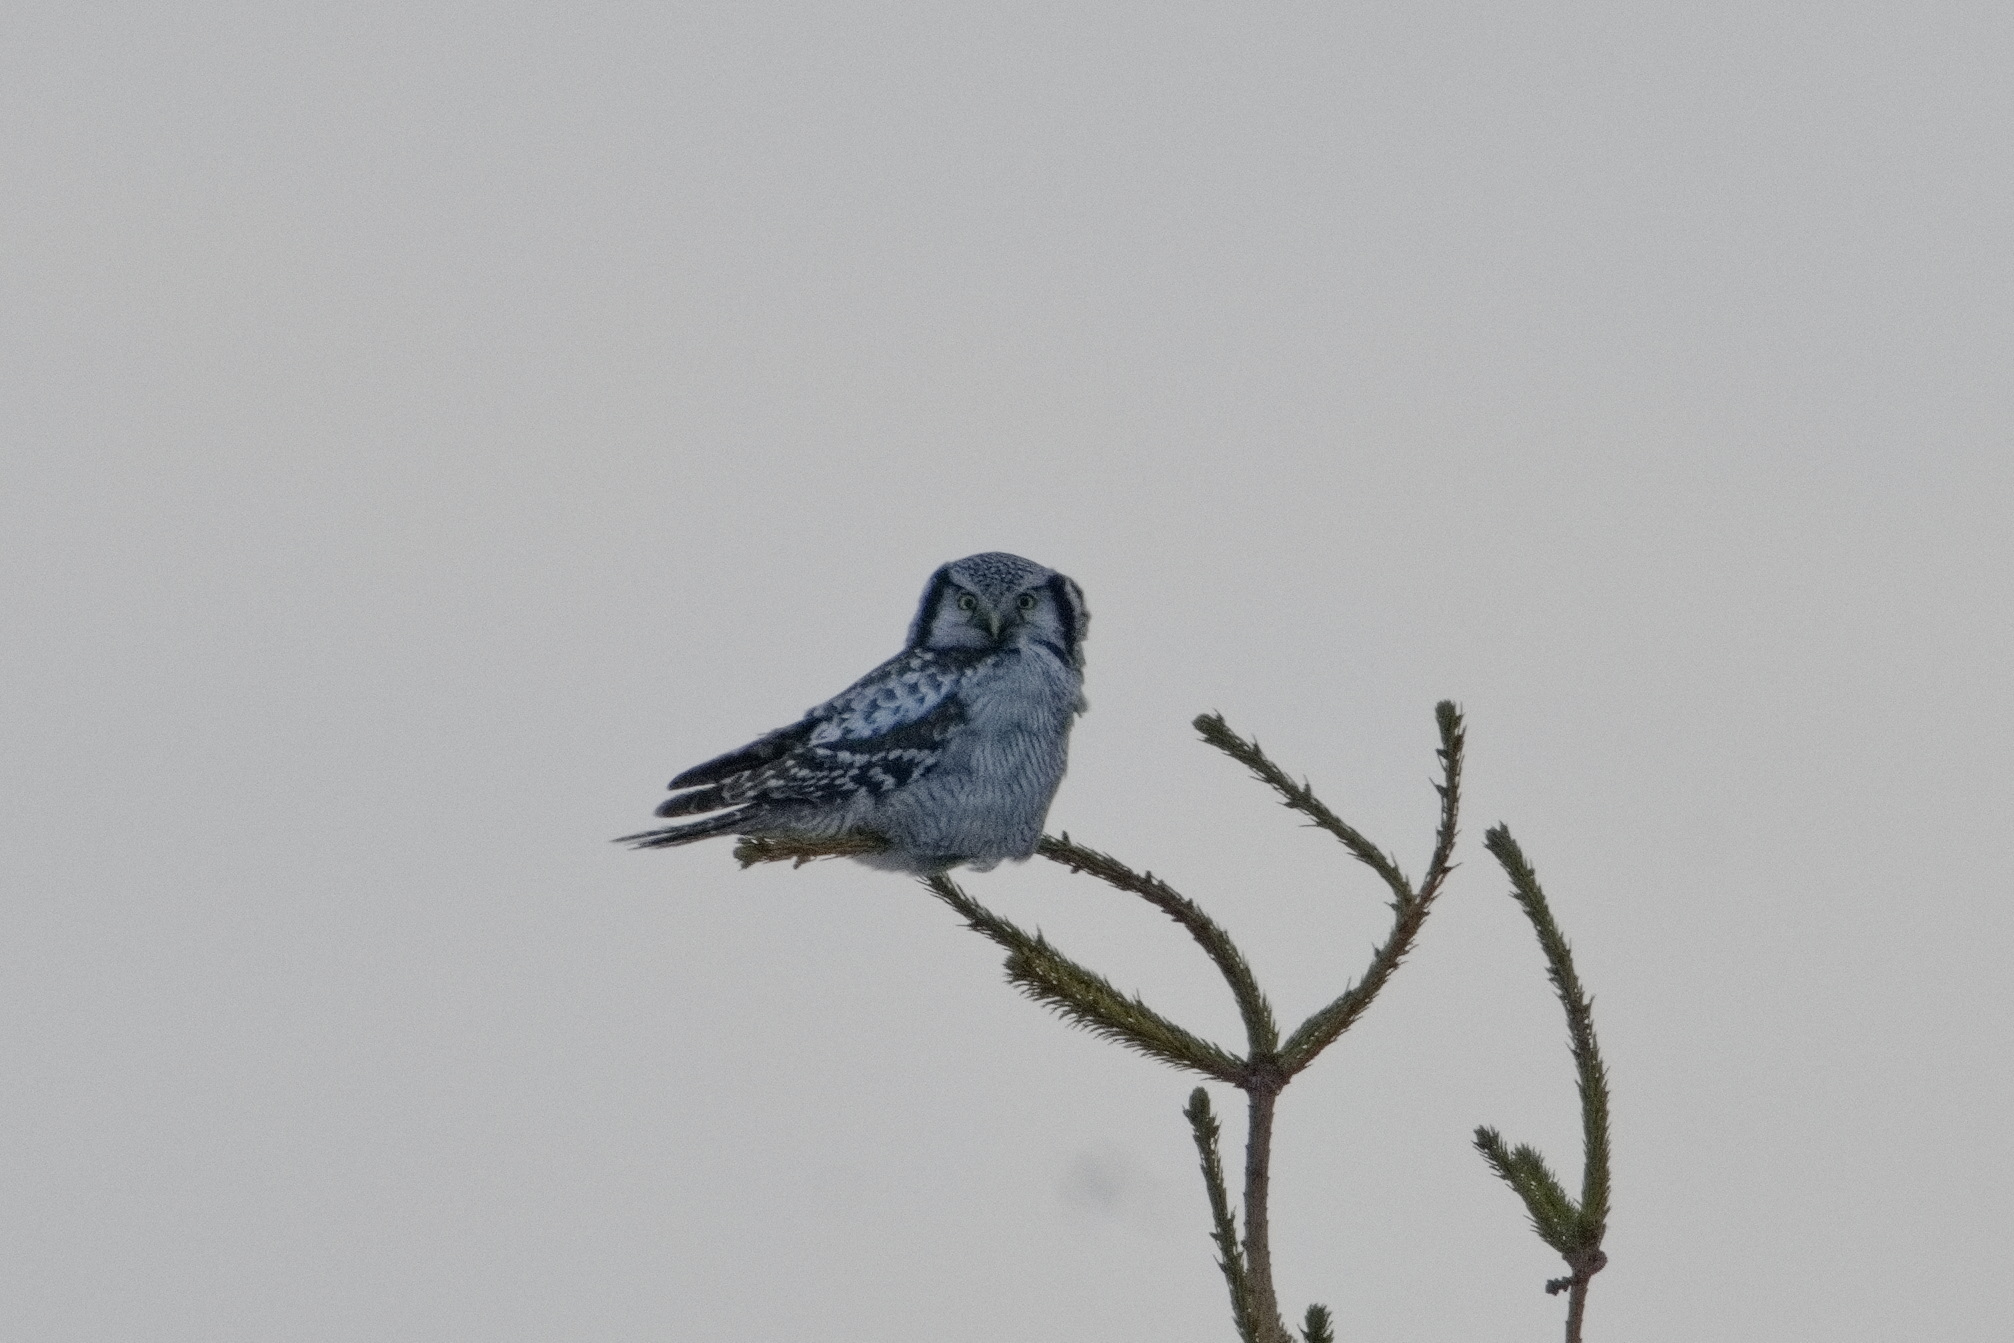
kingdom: Animalia
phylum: Chordata
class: Aves
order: Strigiformes
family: Strigidae
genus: Surnia
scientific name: Surnia ulula
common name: Northern hawk-owl
